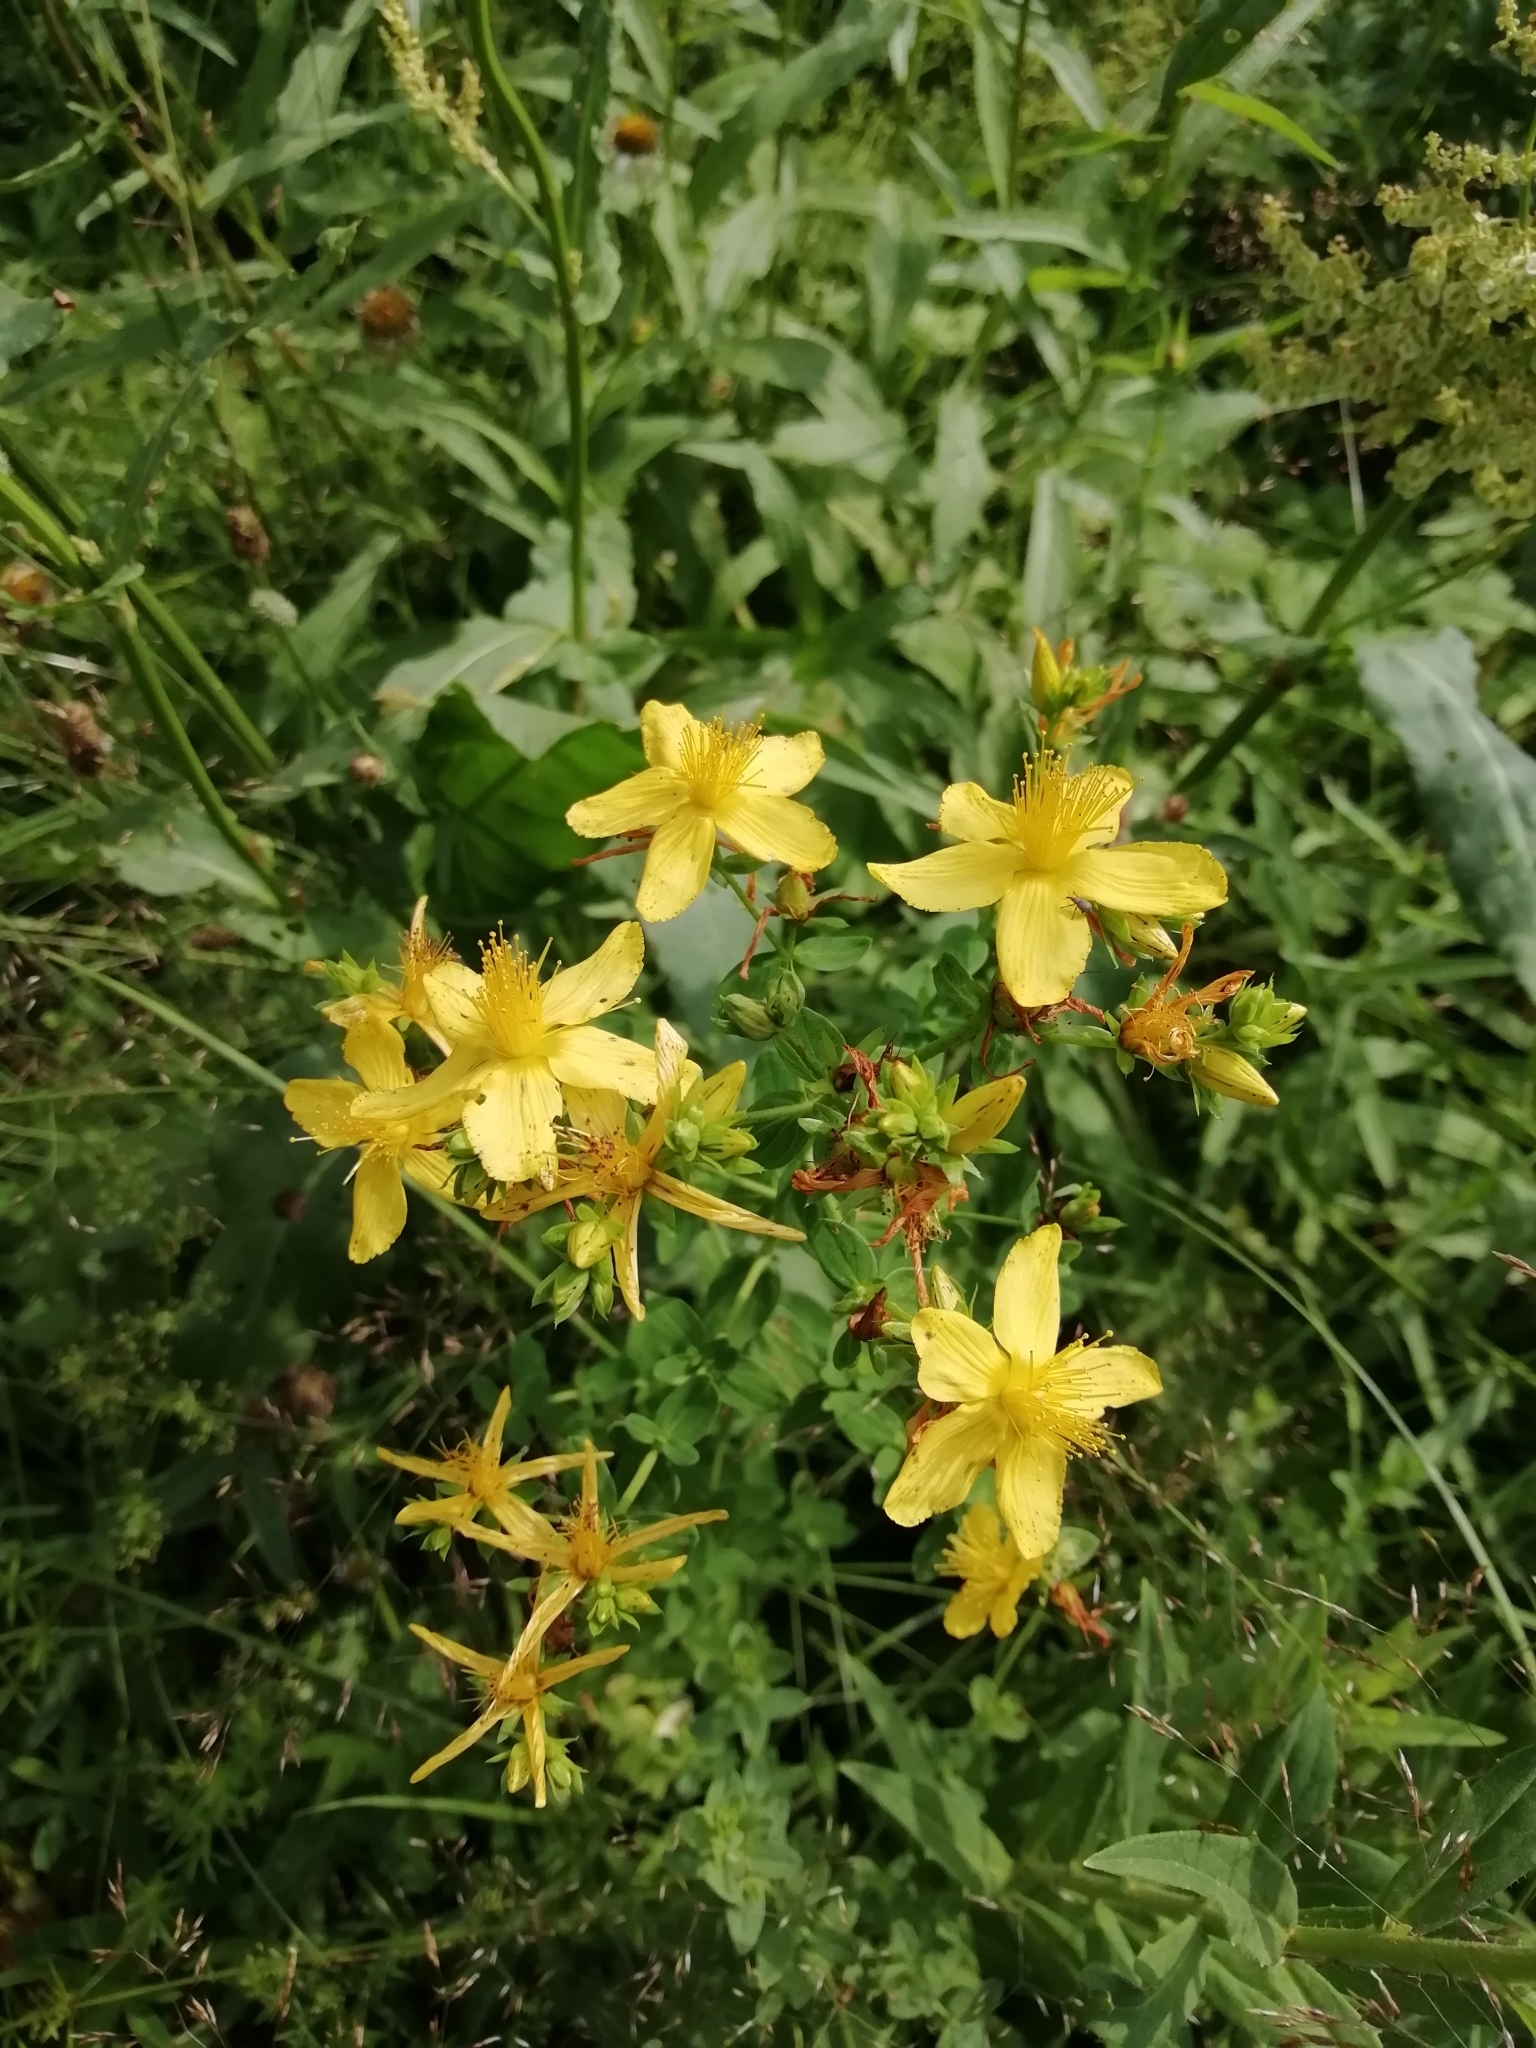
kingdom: Plantae
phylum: Tracheophyta
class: Magnoliopsida
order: Malpighiales
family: Hypericaceae
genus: Hypericum
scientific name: Hypericum perforatum
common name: Common st. johnswort
